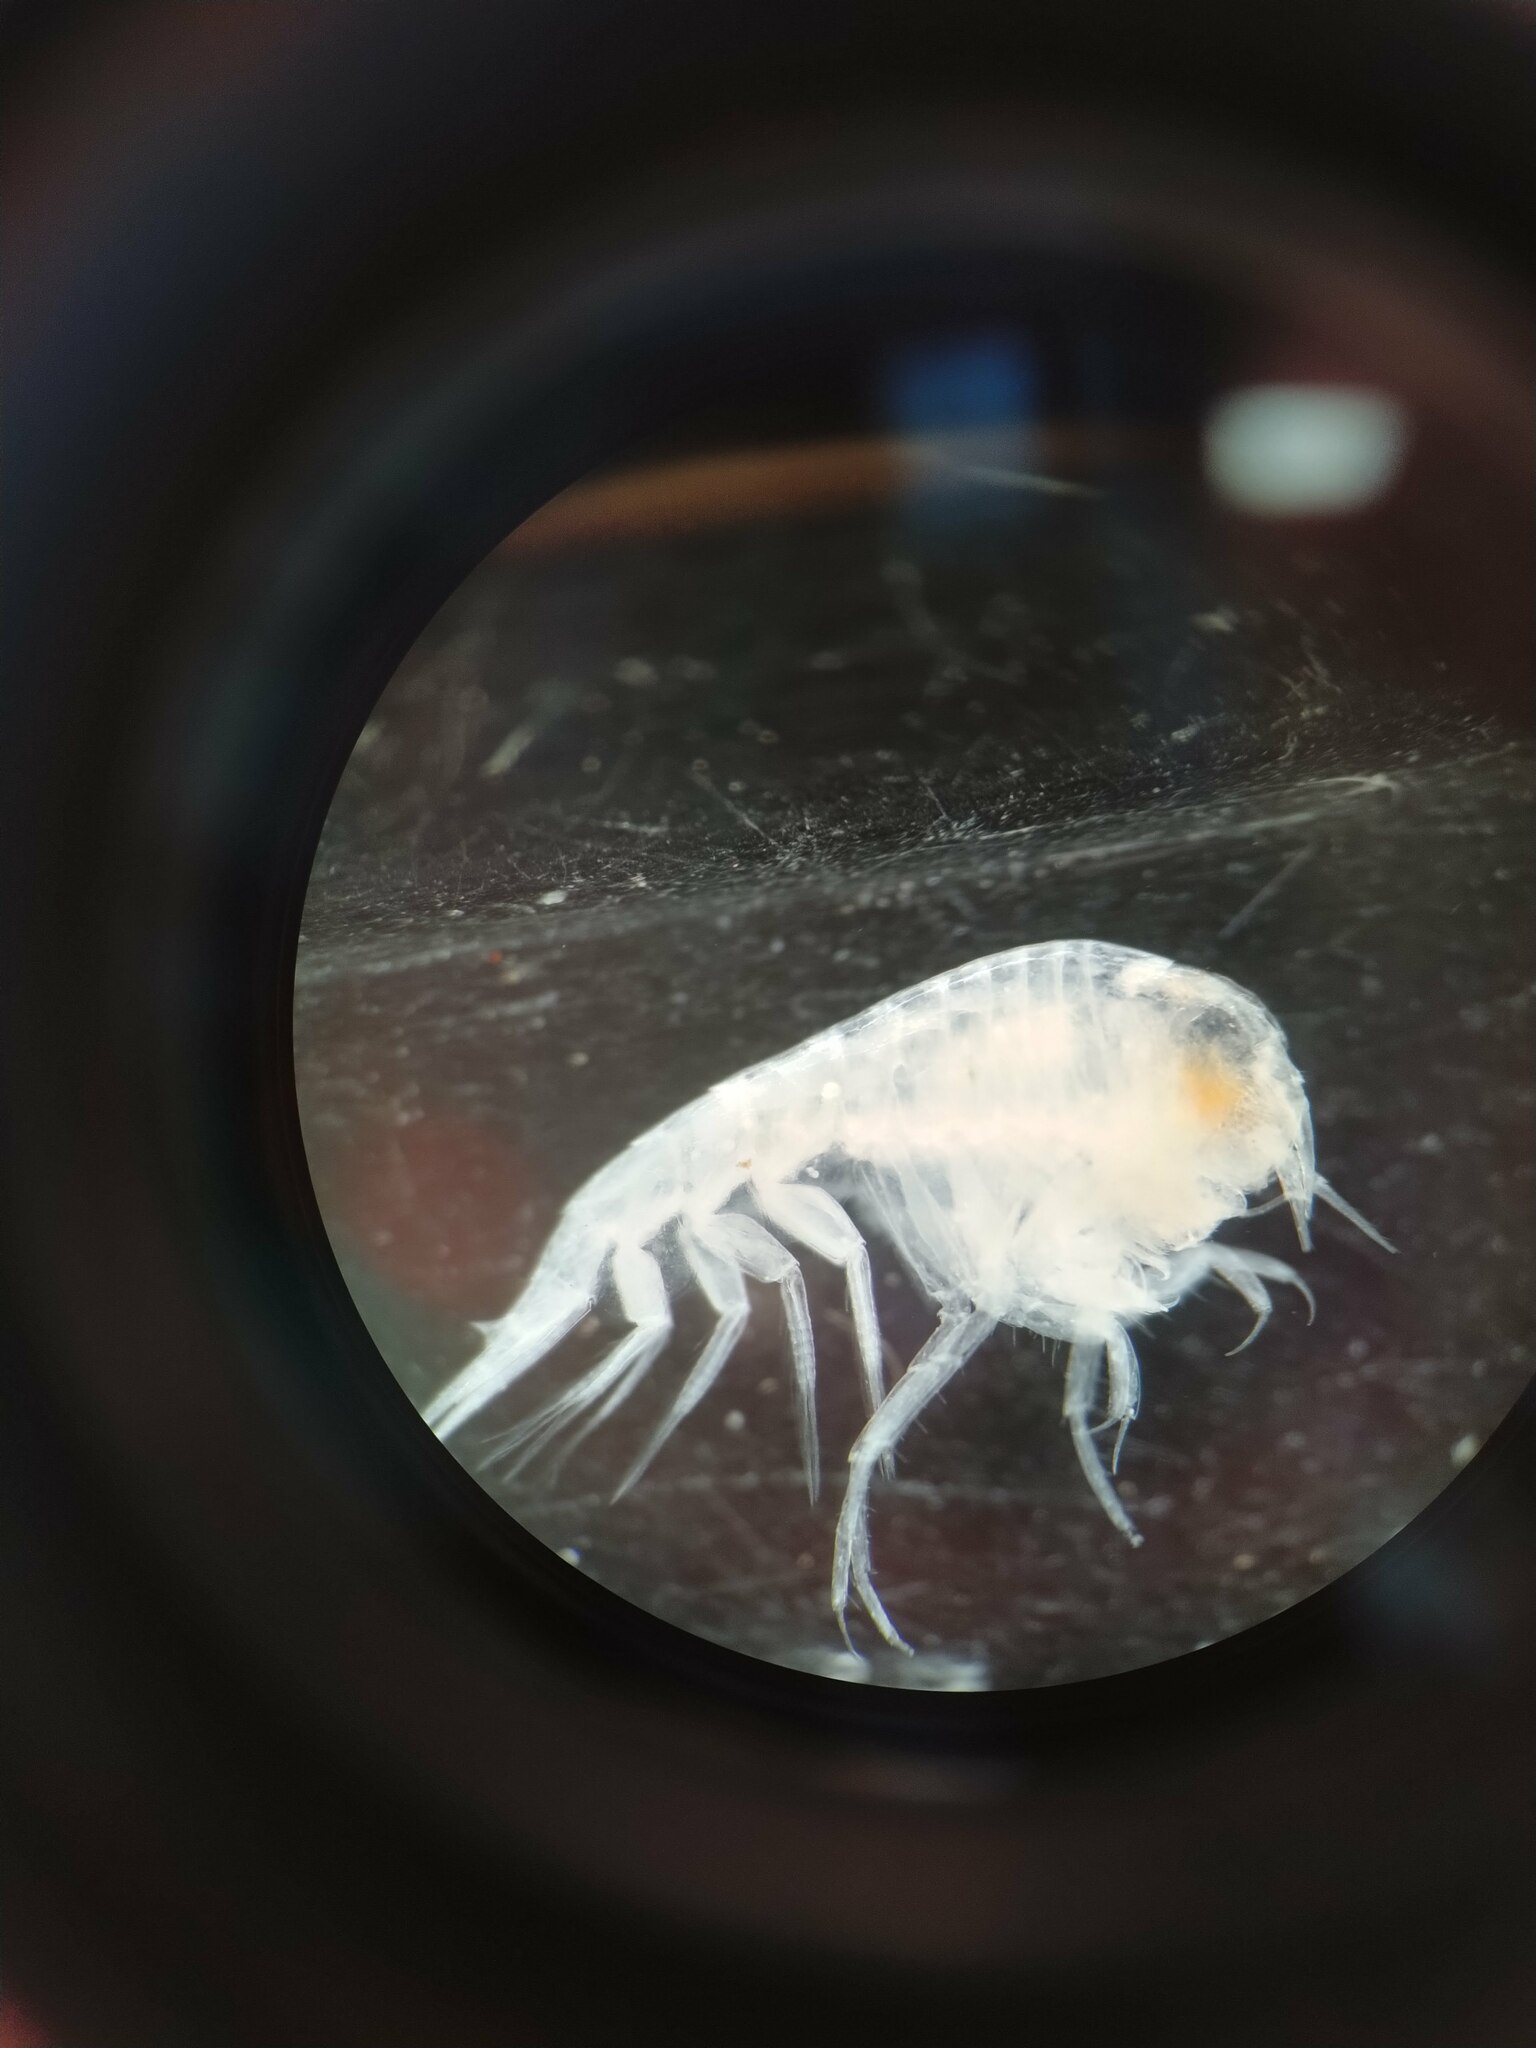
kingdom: Animalia
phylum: Arthropoda
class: Malacostraca
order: Amphipoda
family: Hyperiidae
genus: Themisto
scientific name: Themisto abyssorum
